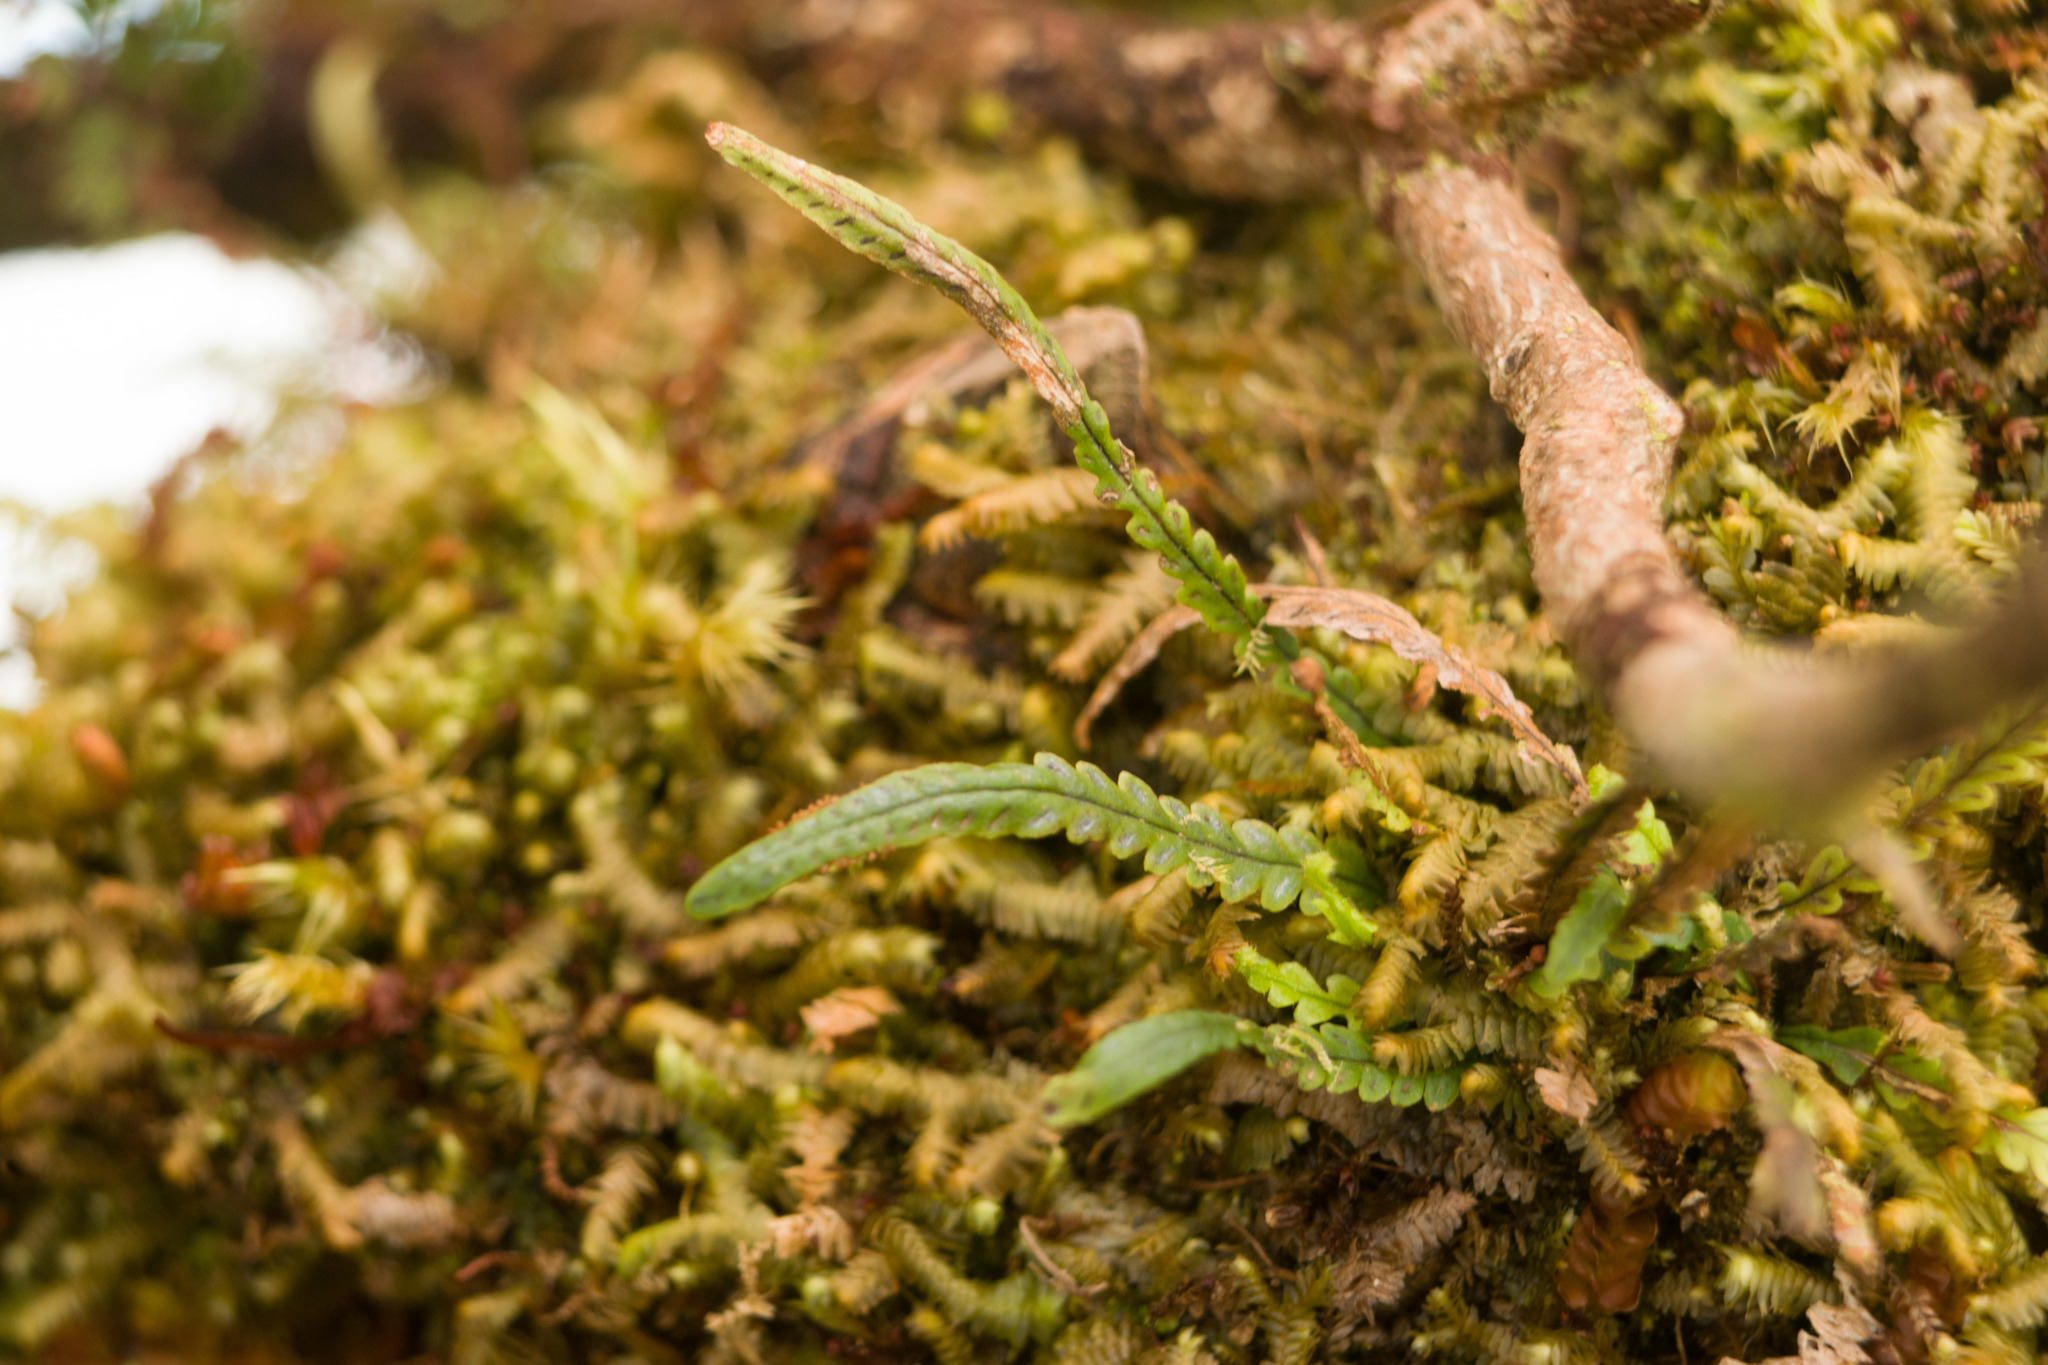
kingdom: Plantae
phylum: Tracheophyta
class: Polypodiopsida
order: Polypodiales
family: Polypodiaceae
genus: Stenogrammitis
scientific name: Stenogrammitis saffordii
